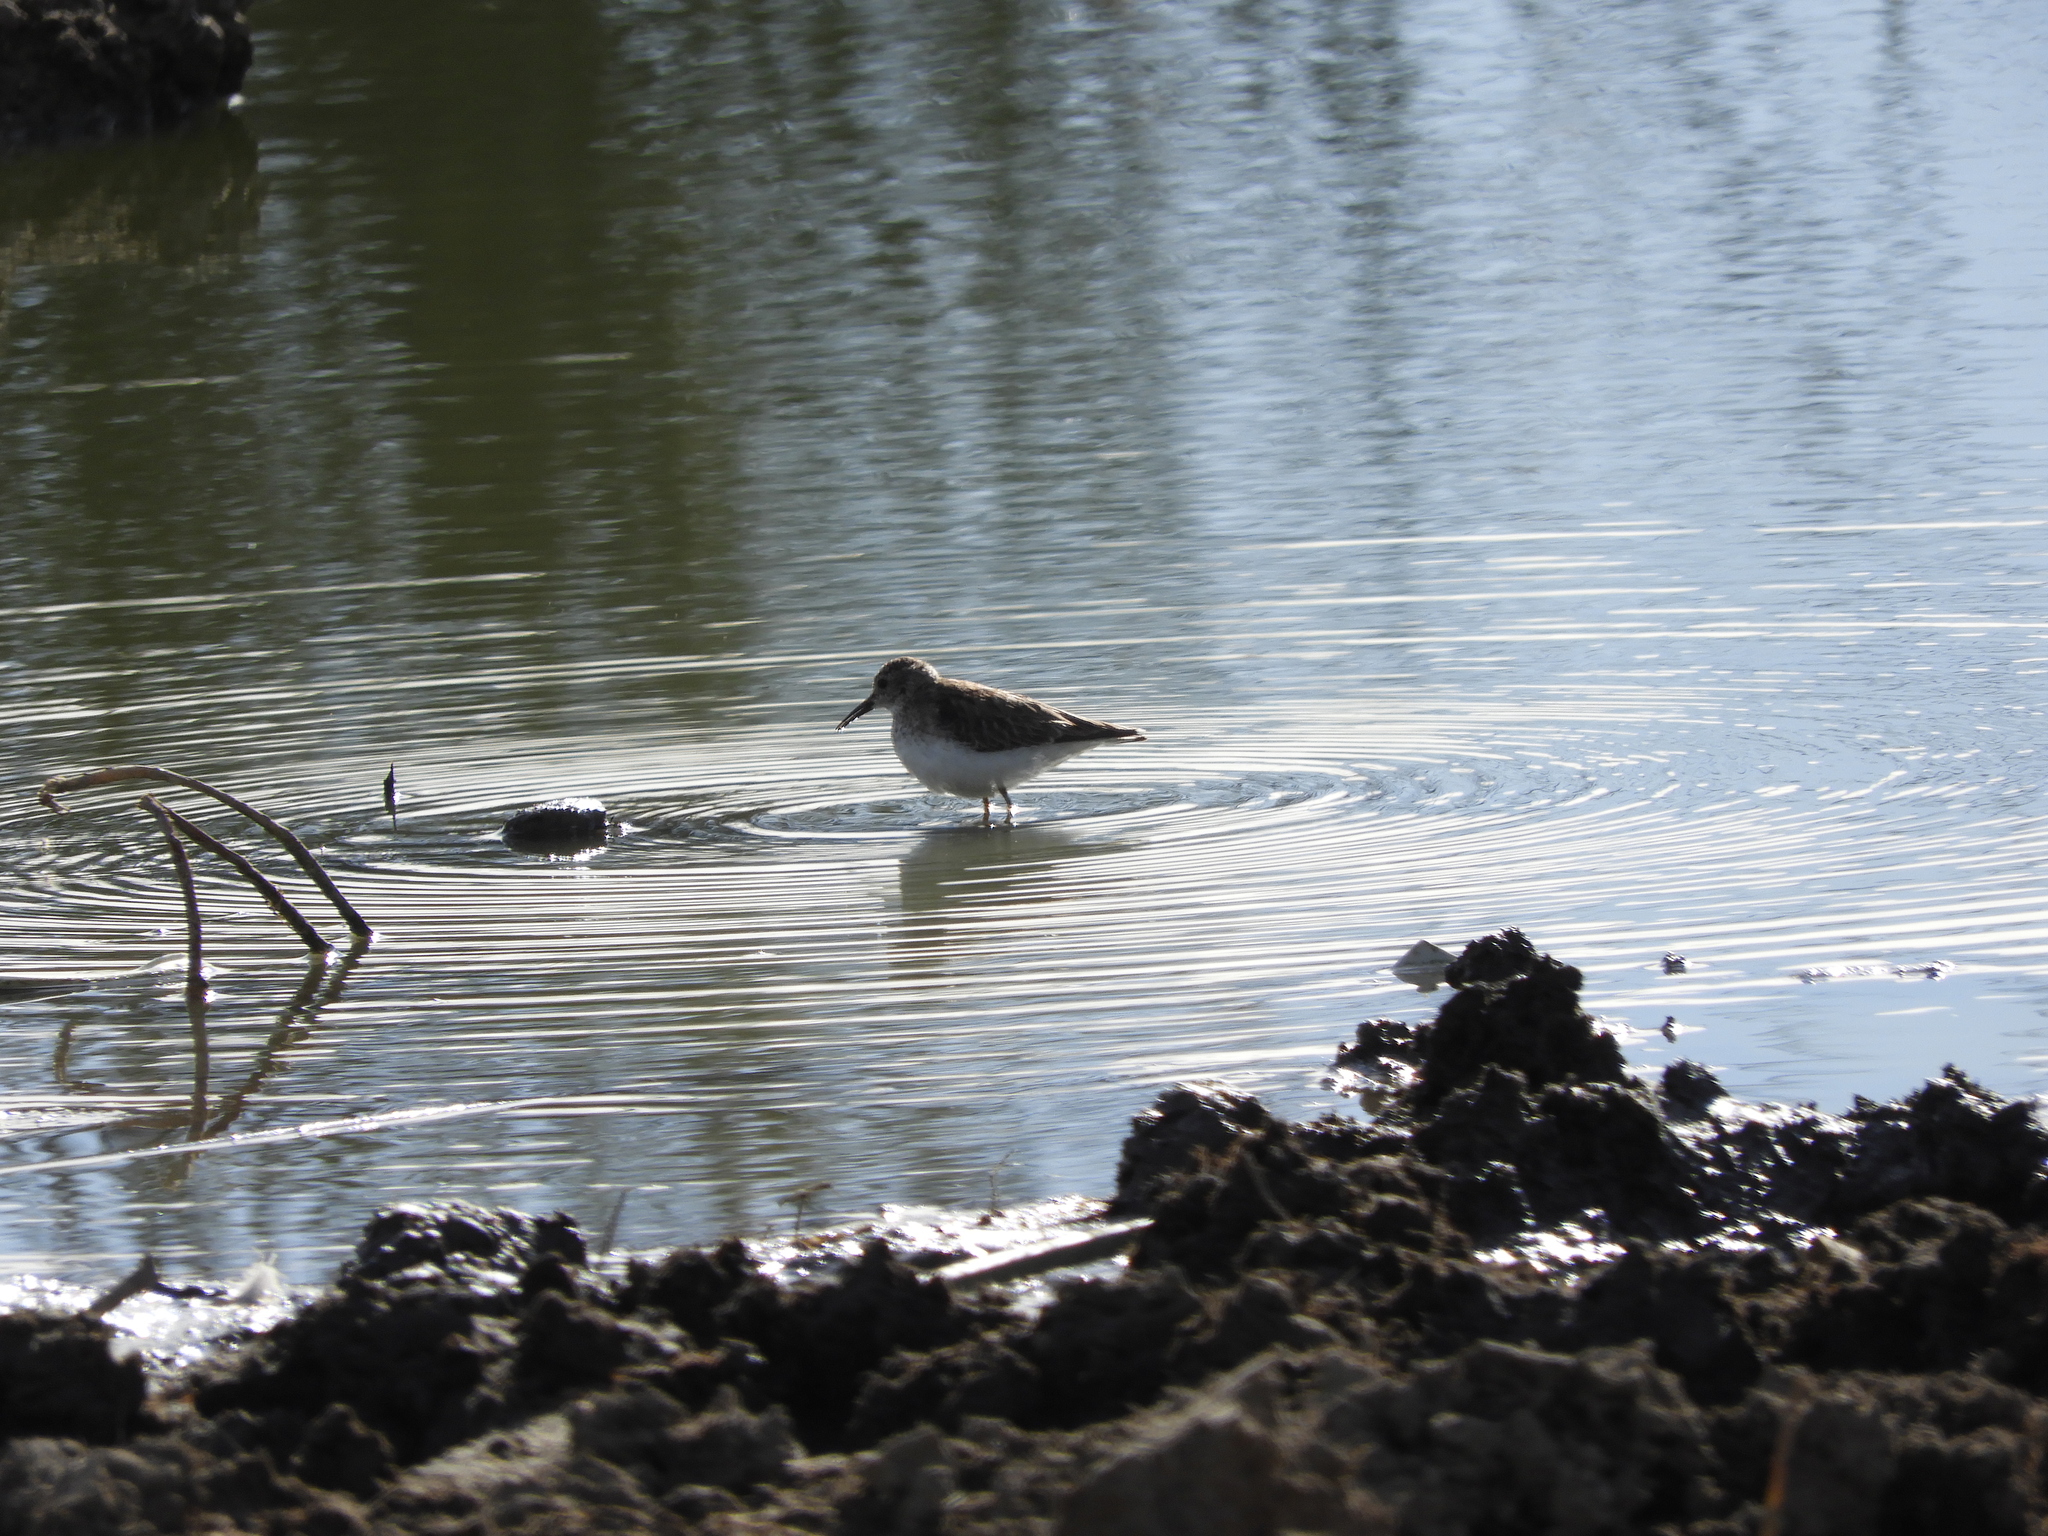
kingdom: Animalia
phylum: Chordata
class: Aves
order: Charadriiformes
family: Scolopacidae
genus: Calidris
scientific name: Calidris minutilla
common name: Least sandpiper
